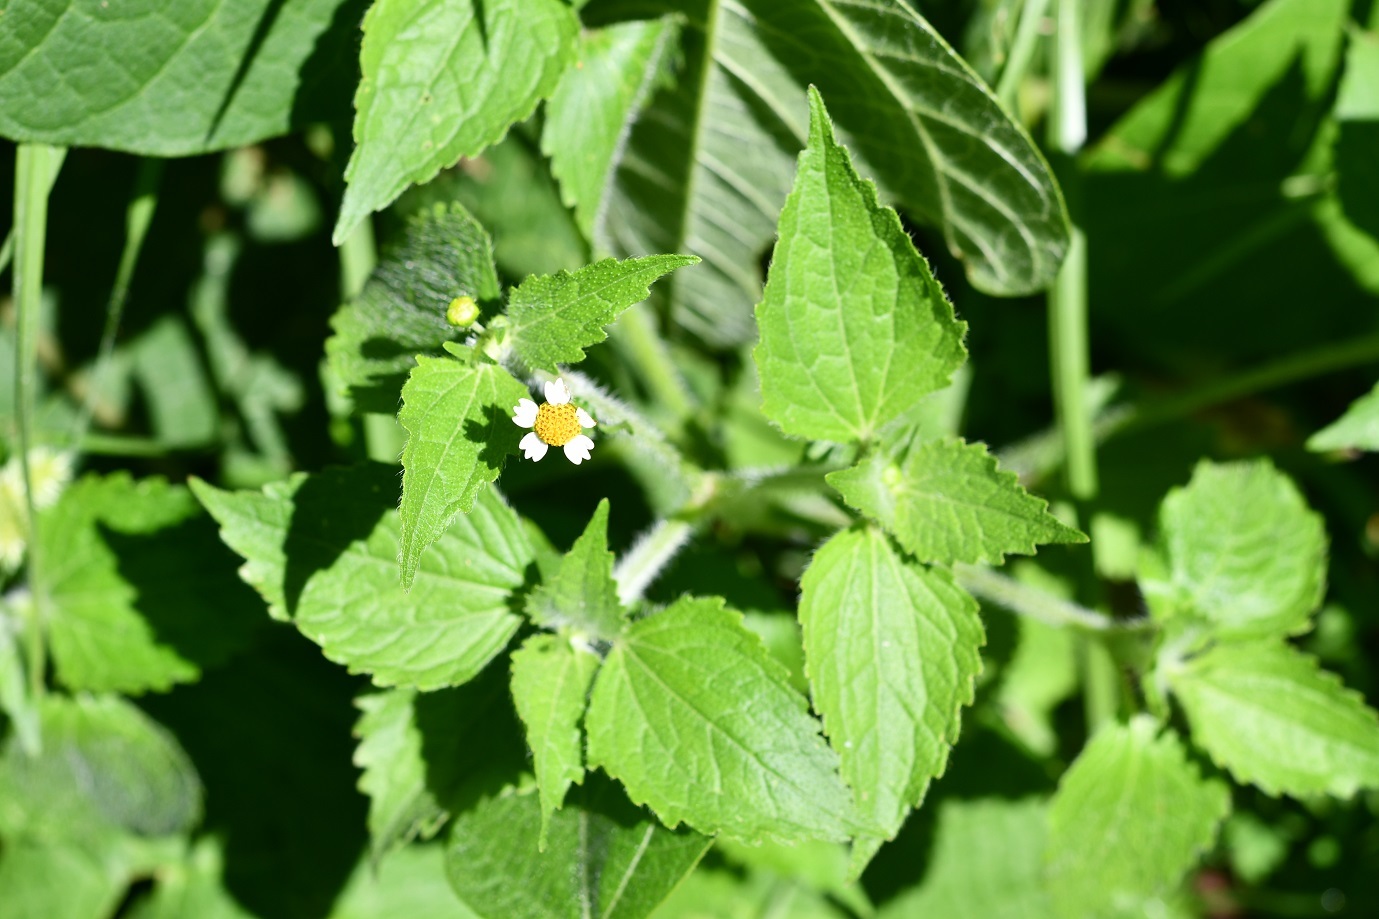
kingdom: Plantae
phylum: Tracheophyta
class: Magnoliopsida
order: Asterales
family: Asteraceae
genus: Galinsoga
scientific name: Galinsoga quadriradiata
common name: Shaggy soldier
